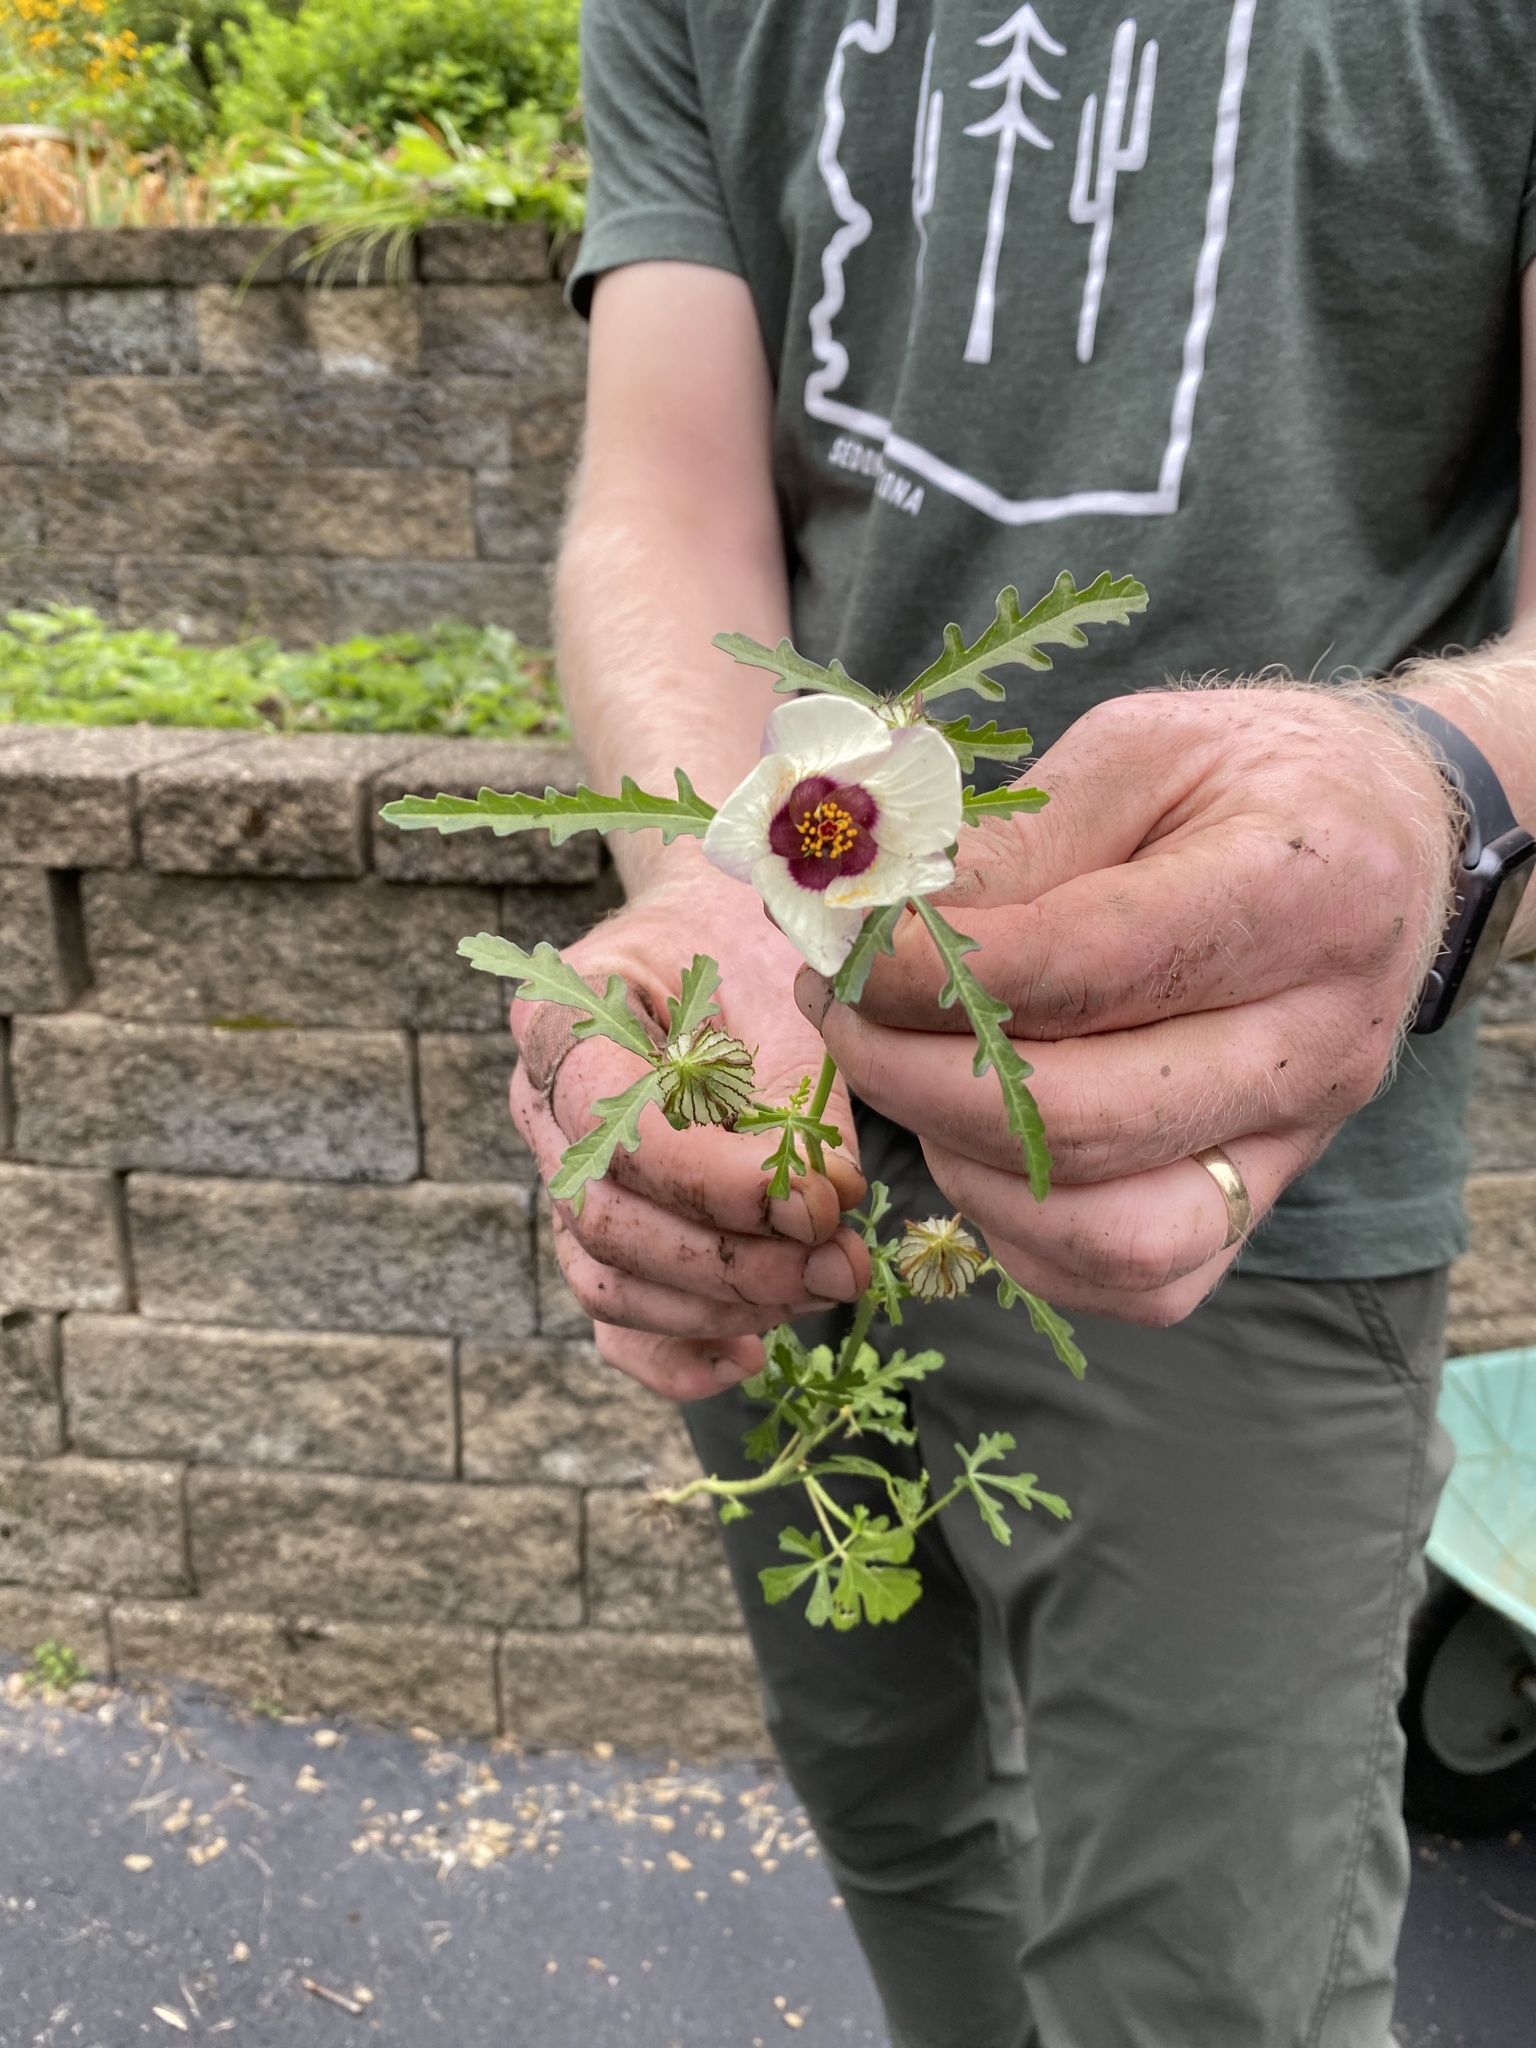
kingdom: Plantae
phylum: Tracheophyta
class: Magnoliopsida
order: Malvales
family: Malvaceae
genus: Hibiscus
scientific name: Hibiscus trionum
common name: Bladder ketmia
